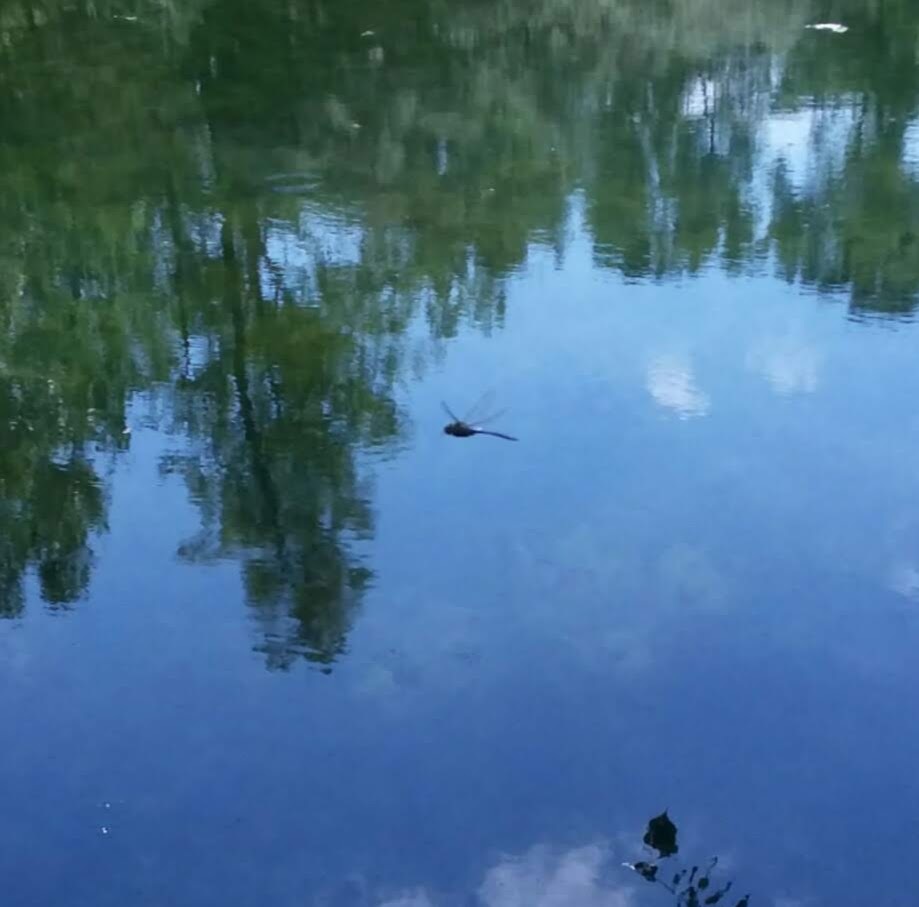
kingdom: Animalia
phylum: Arthropoda
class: Insecta
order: Odonata
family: Aeshnidae
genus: Anax
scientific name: Anax junius
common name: Common green darner
